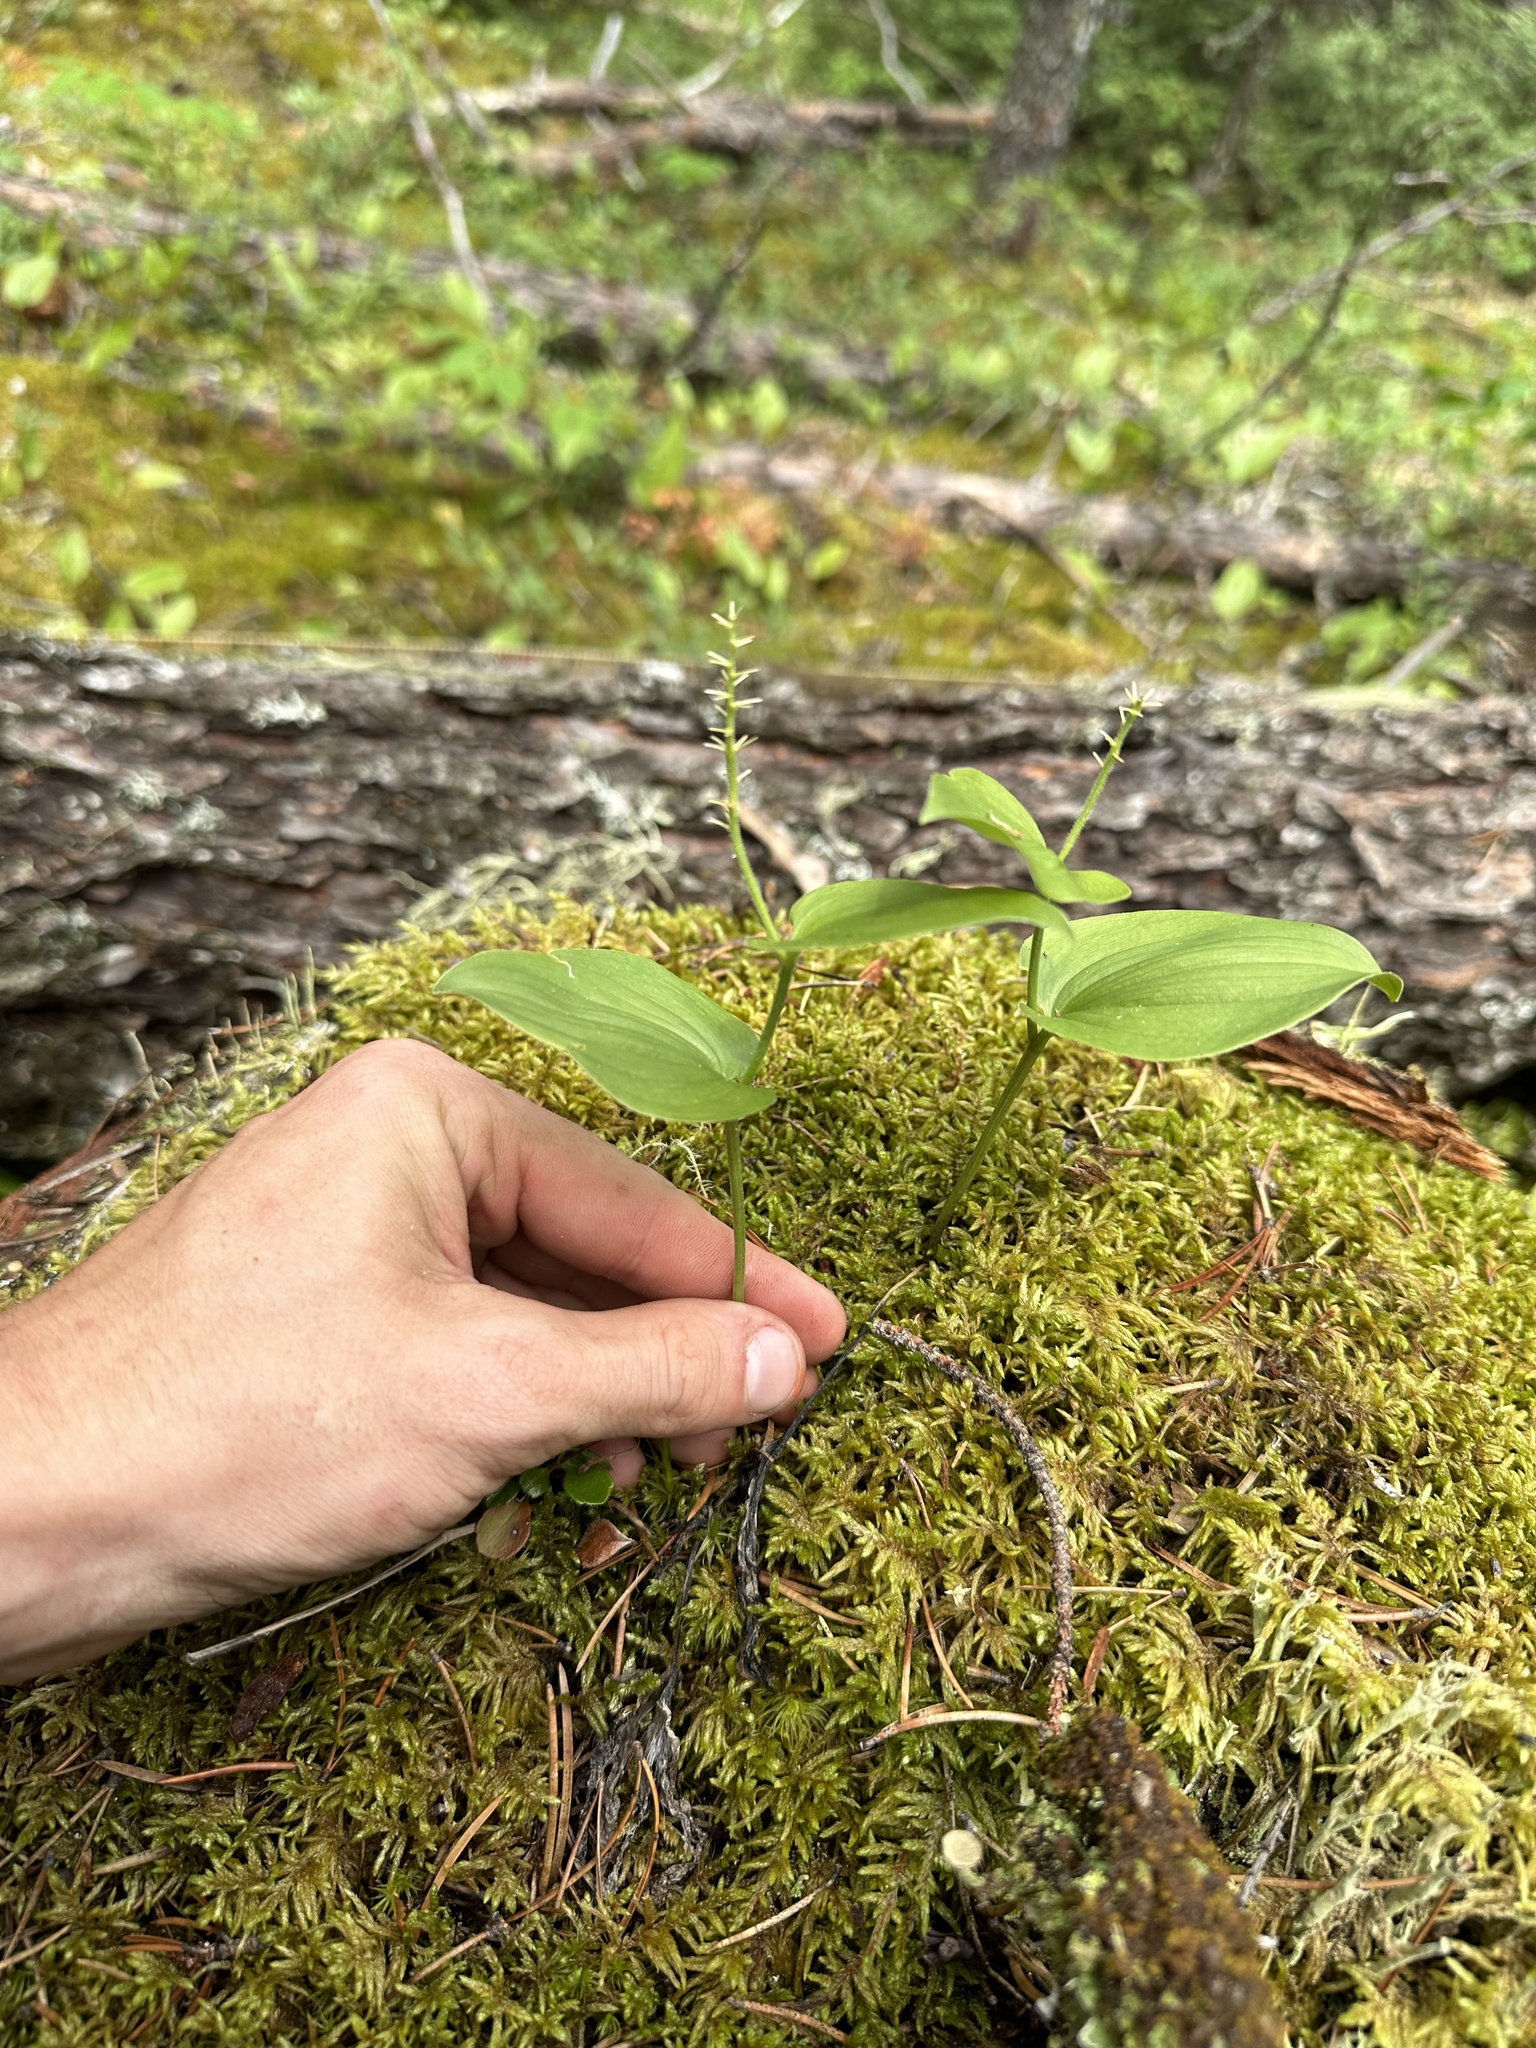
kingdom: Plantae
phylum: Tracheophyta
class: Liliopsida
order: Asparagales
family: Asparagaceae
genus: Maianthemum
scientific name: Maianthemum canadense
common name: False lily-of-the-valley
